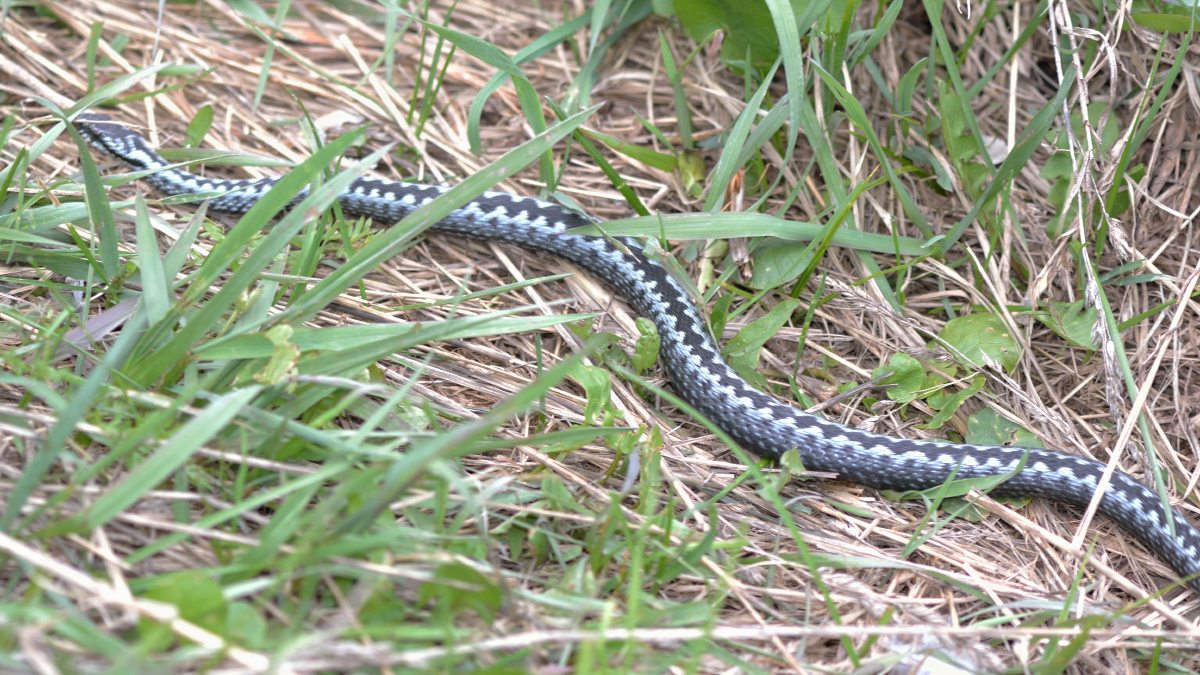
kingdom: Animalia
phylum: Chordata
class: Squamata
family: Viperidae
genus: Vipera
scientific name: Vipera berus
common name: Adder
